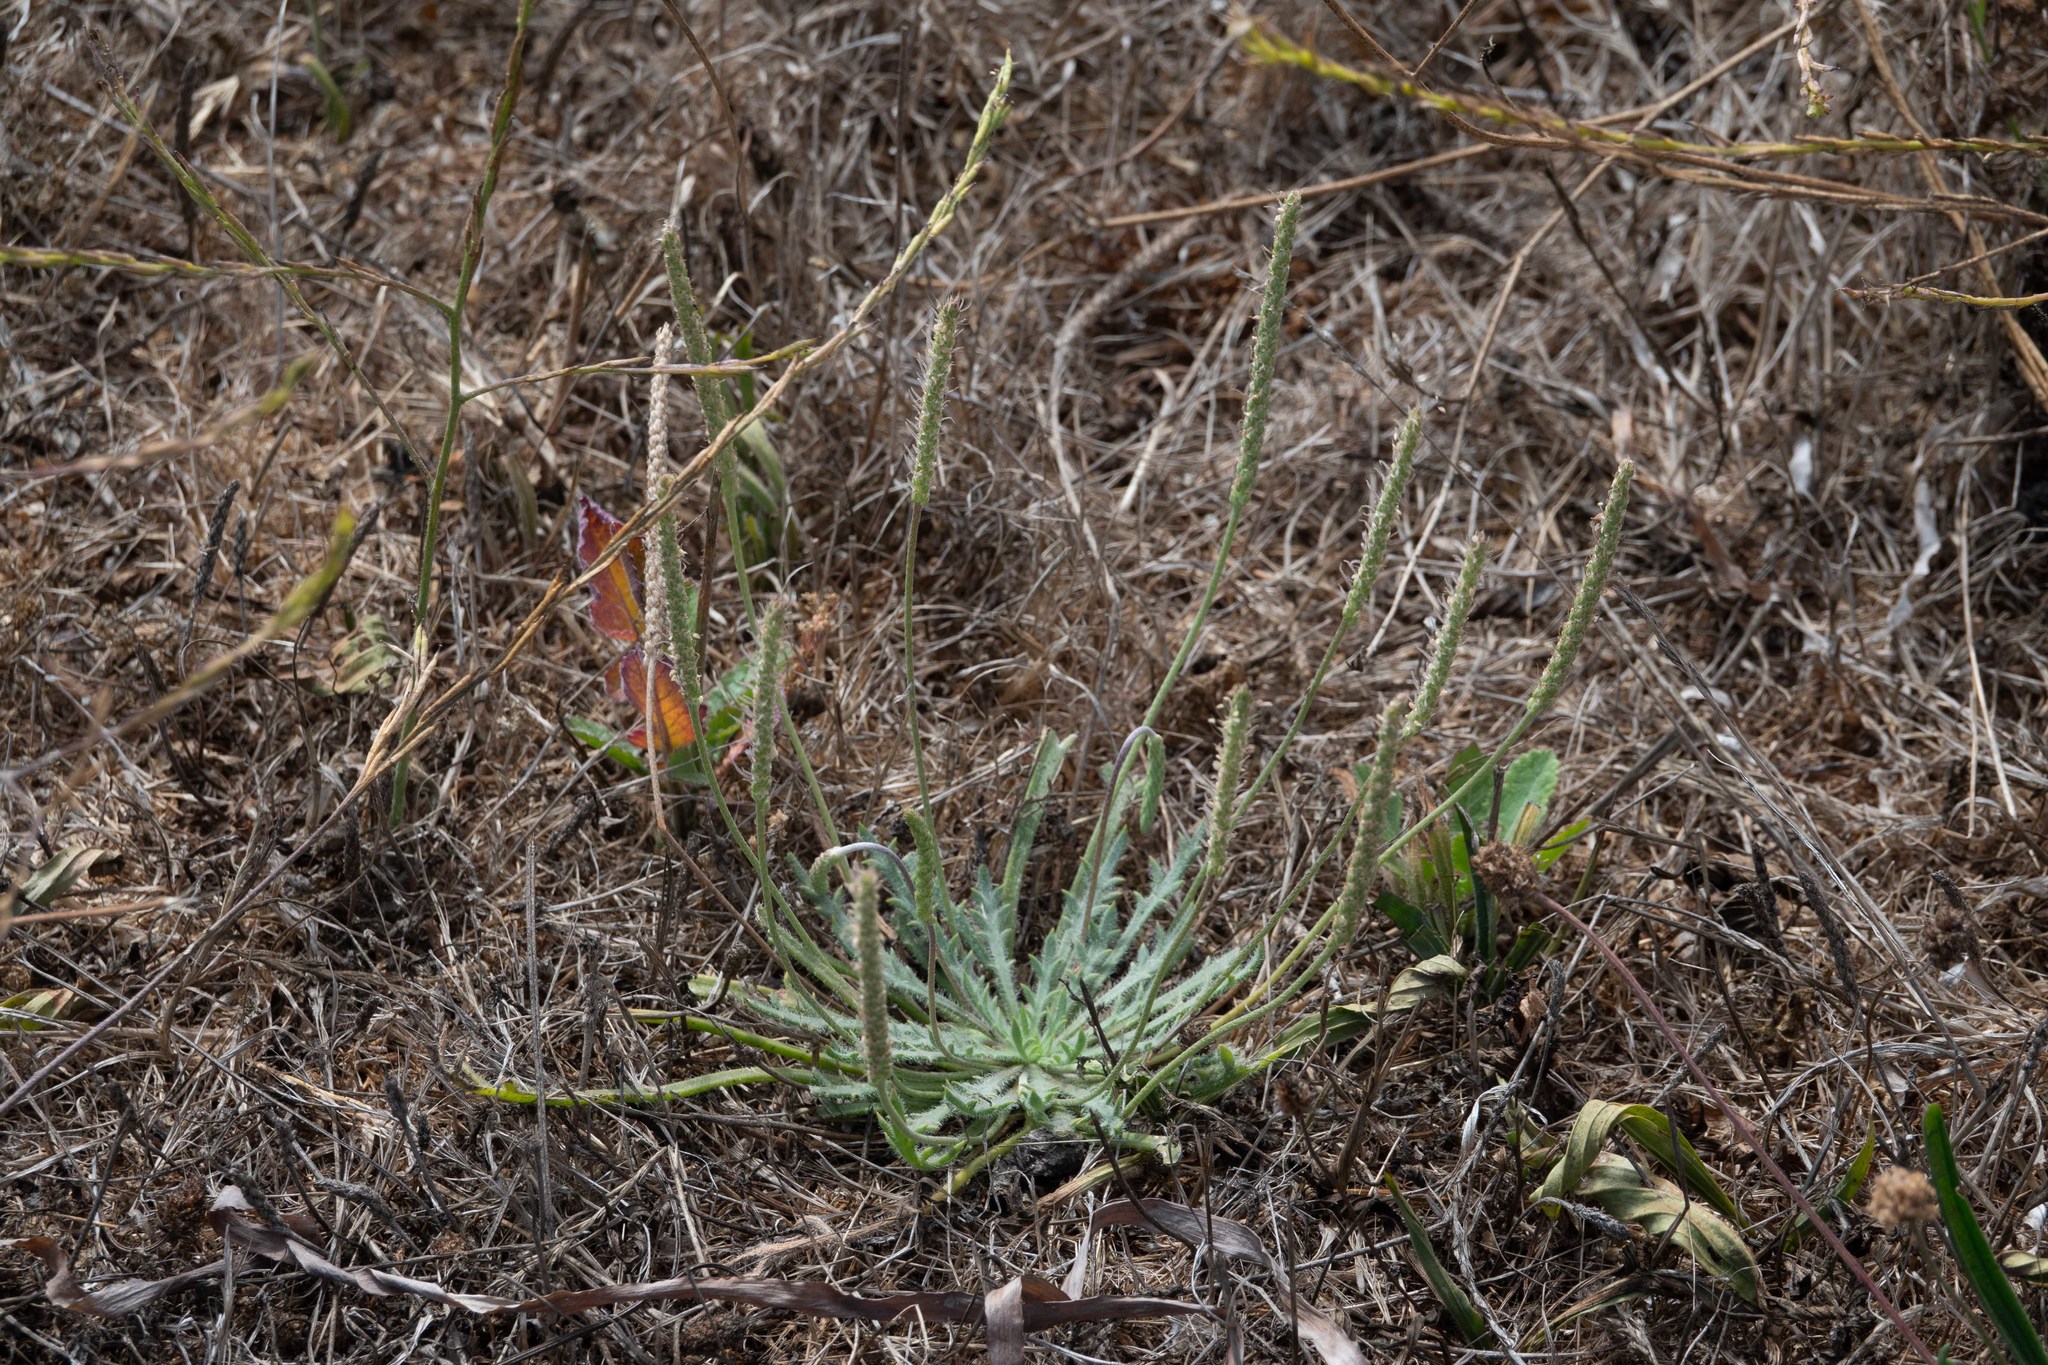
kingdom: Plantae
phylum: Tracheophyta
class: Magnoliopsida
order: Lamiales
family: Plantaginaceae
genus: Plantago
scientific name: Plantago coronopus
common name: Buck's-horn plantain
